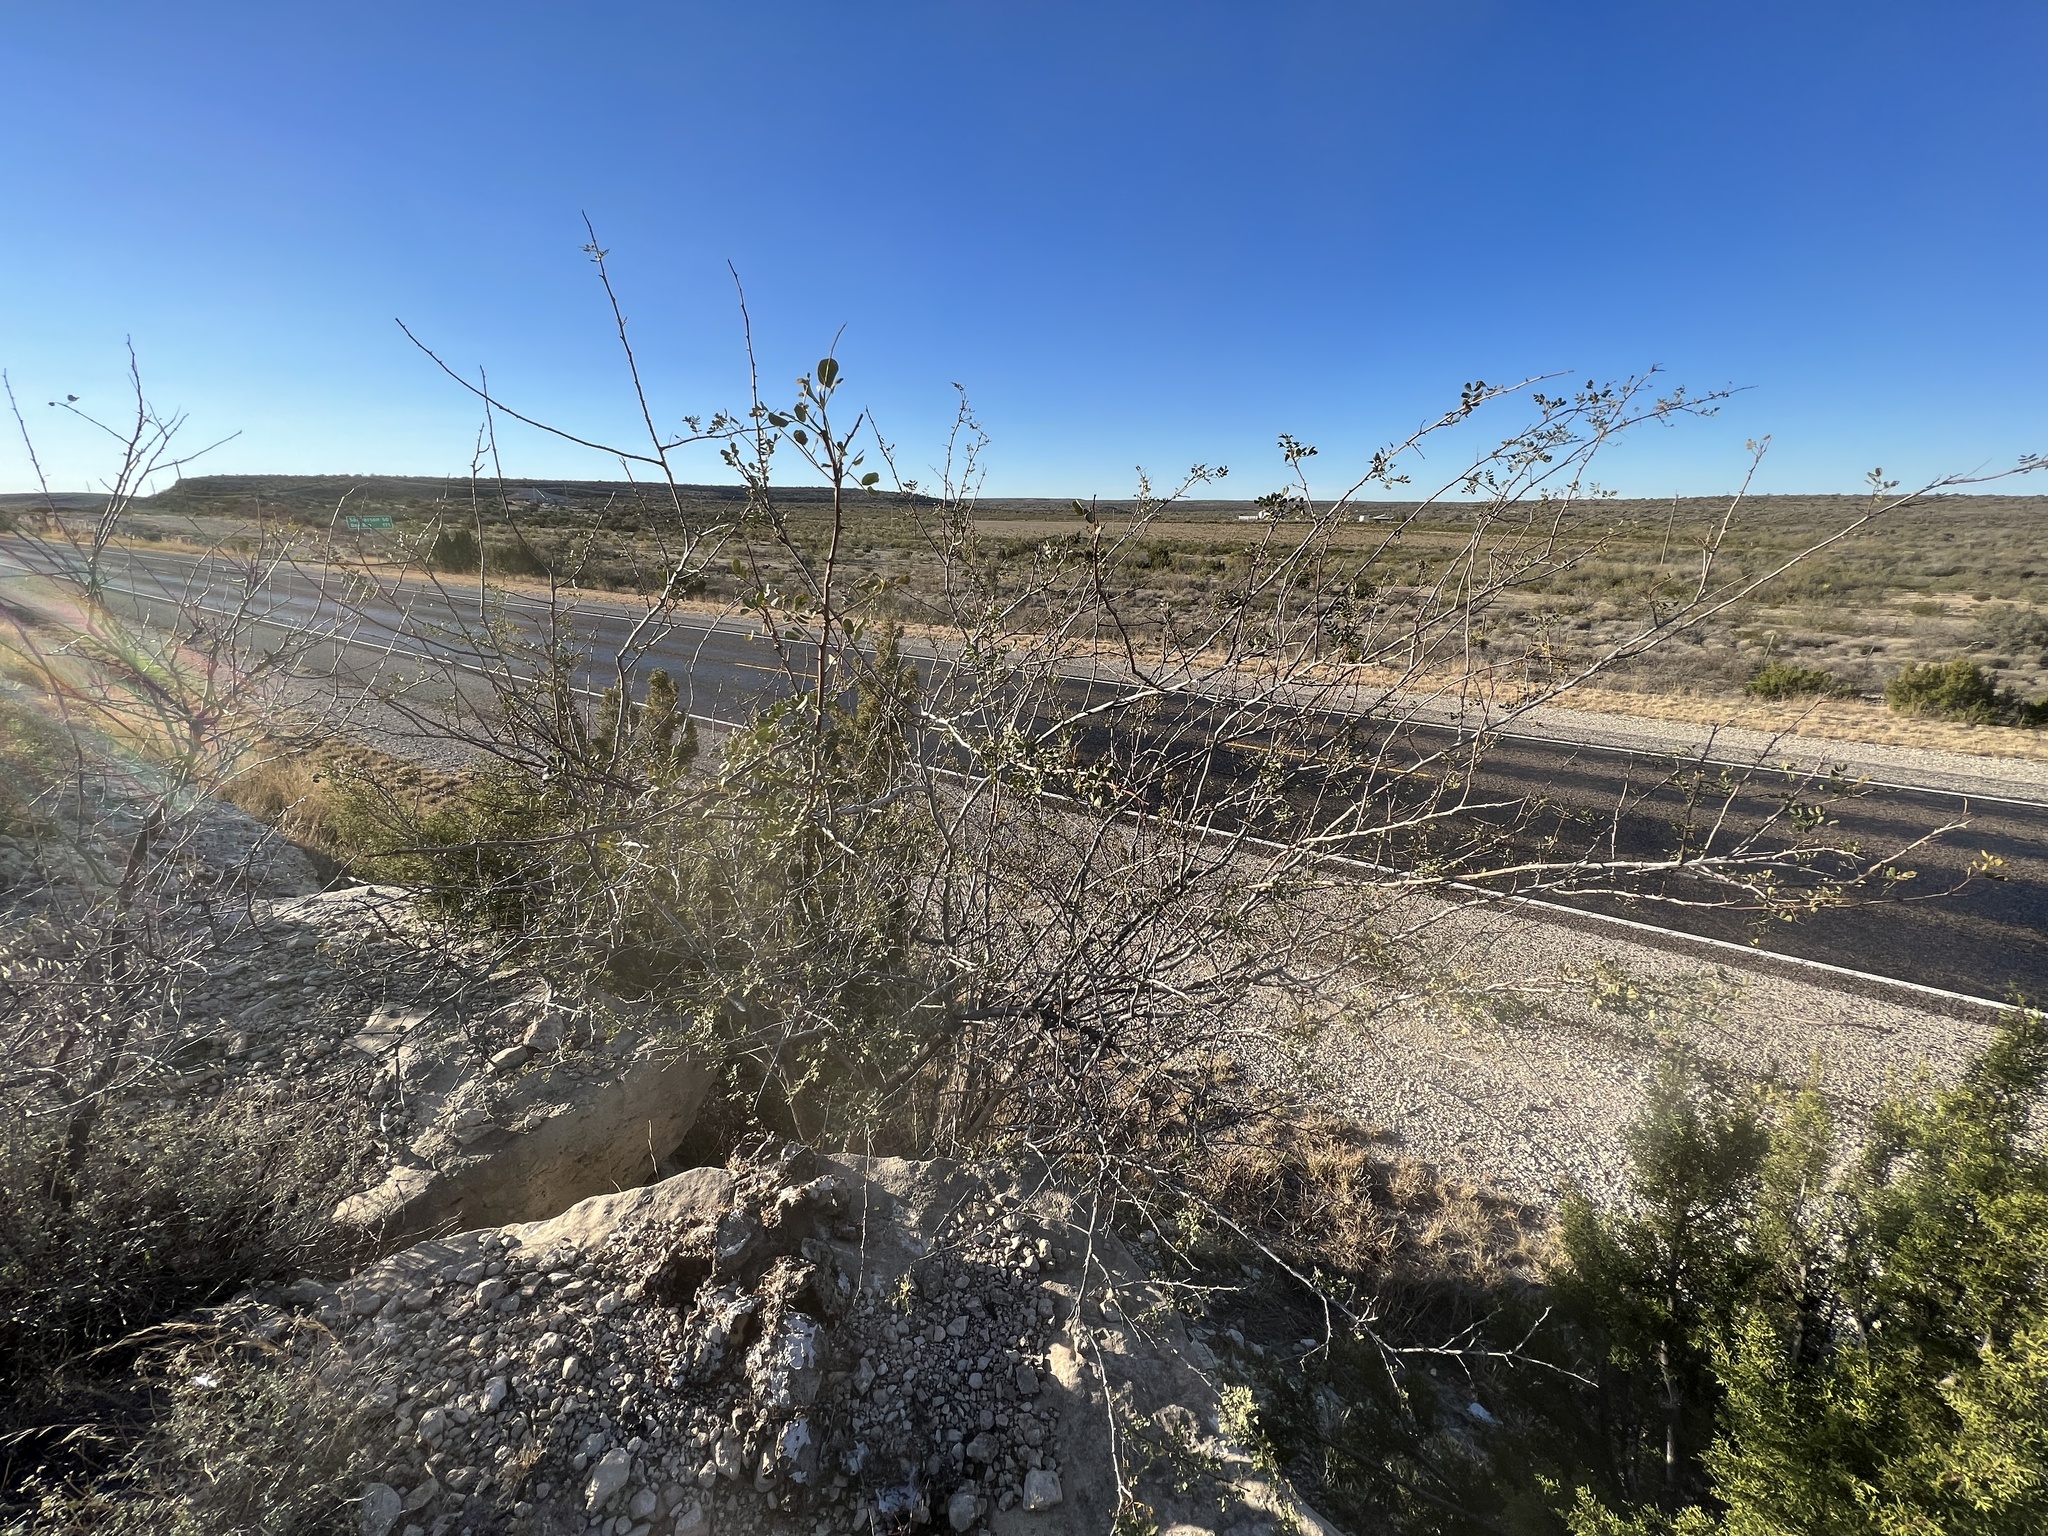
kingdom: Plantae
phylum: Tracheophyta
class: Magnoliopsida
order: Fabales
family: Fabaceae
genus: Senegalia
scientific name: Senegalia roemeriana
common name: Roemer's acacia
